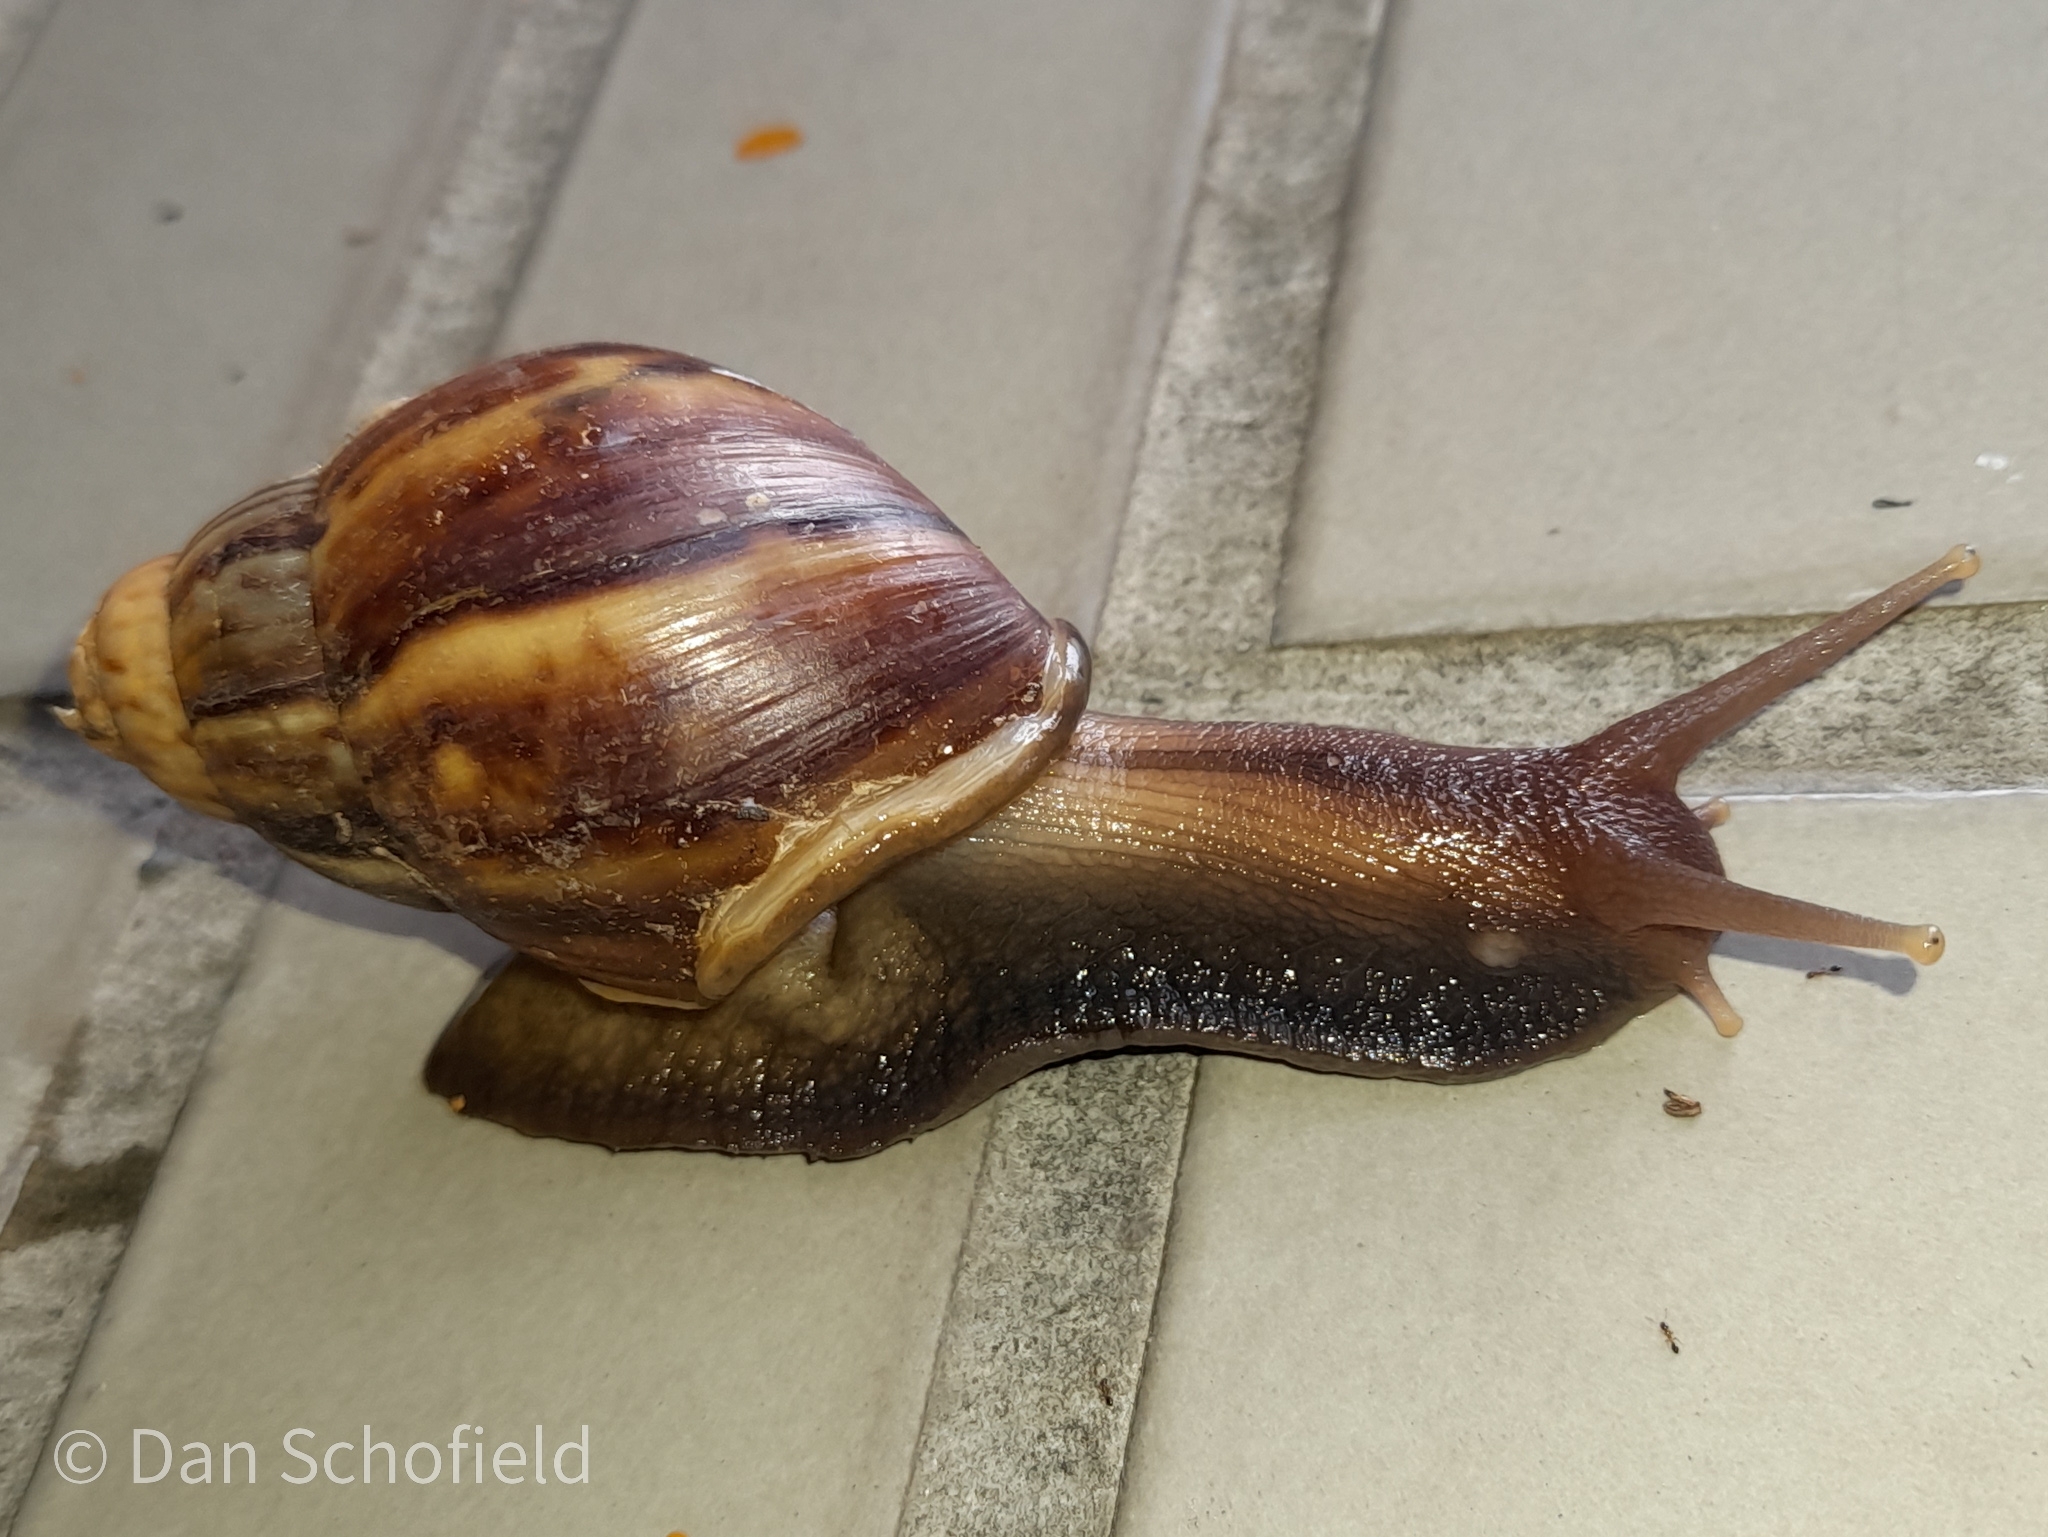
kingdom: Animalia
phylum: Mollusca
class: Gastropoda
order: Stylommatophora
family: Achatinidae
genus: Lissachatina
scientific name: Lissachatina fulica
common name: Giant african snail
